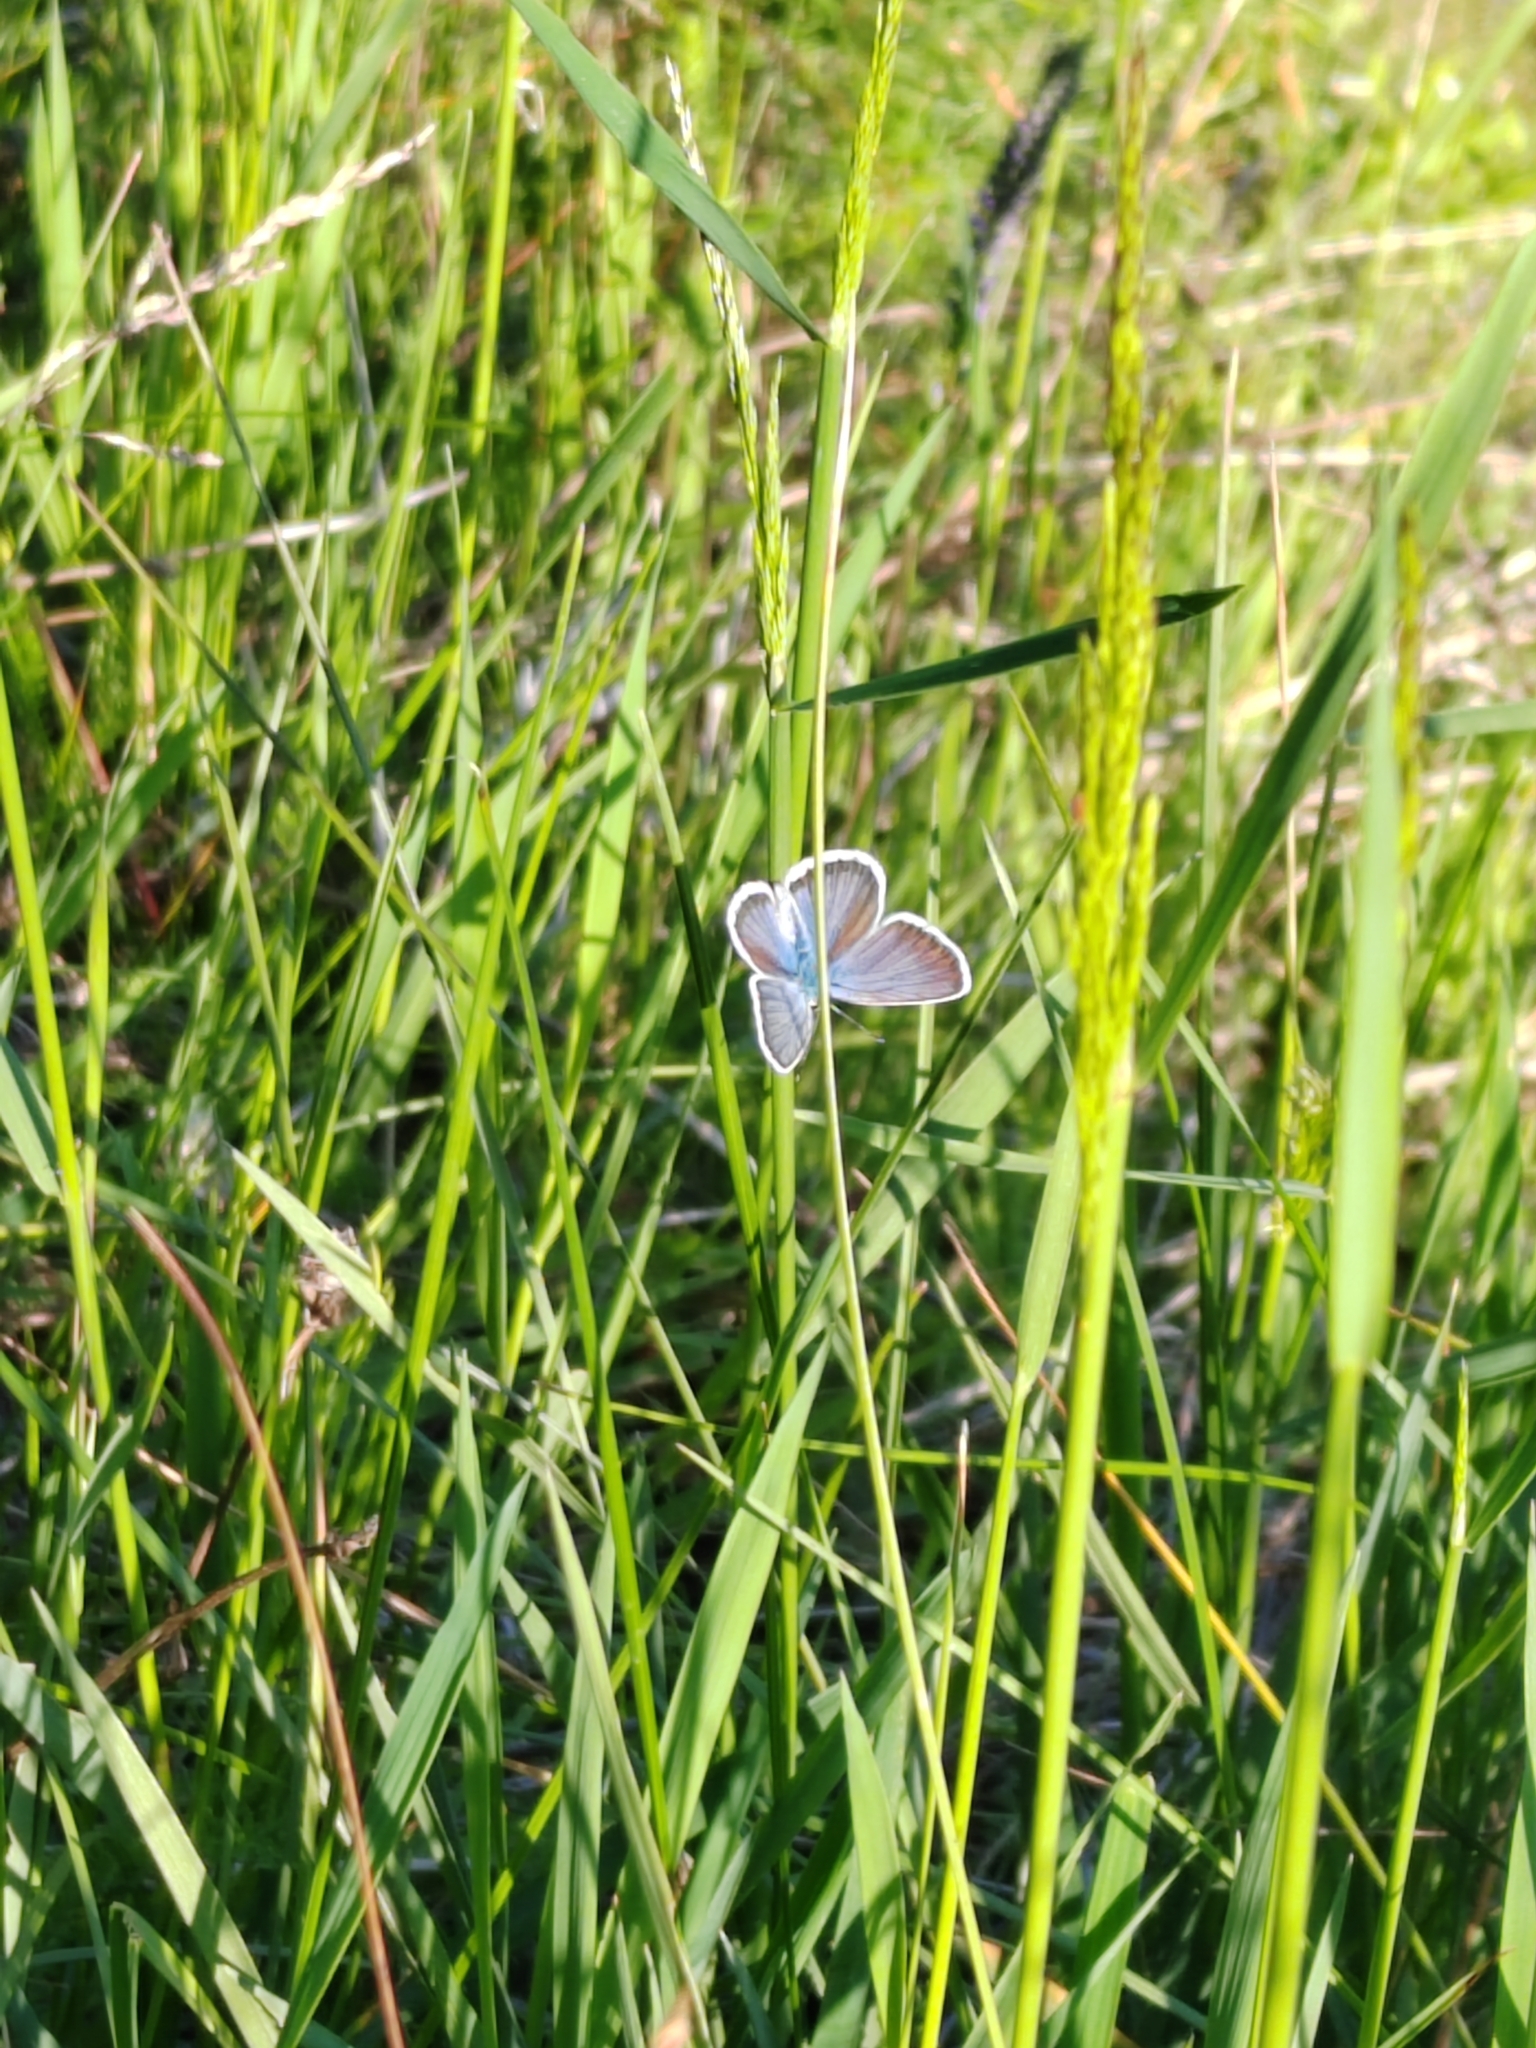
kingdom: Animalia
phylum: Arthropoda
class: Insecta
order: Lepidoptera
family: Lycaenidae
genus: Plebejus
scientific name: Plebejus argus
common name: Silver-studded blue
